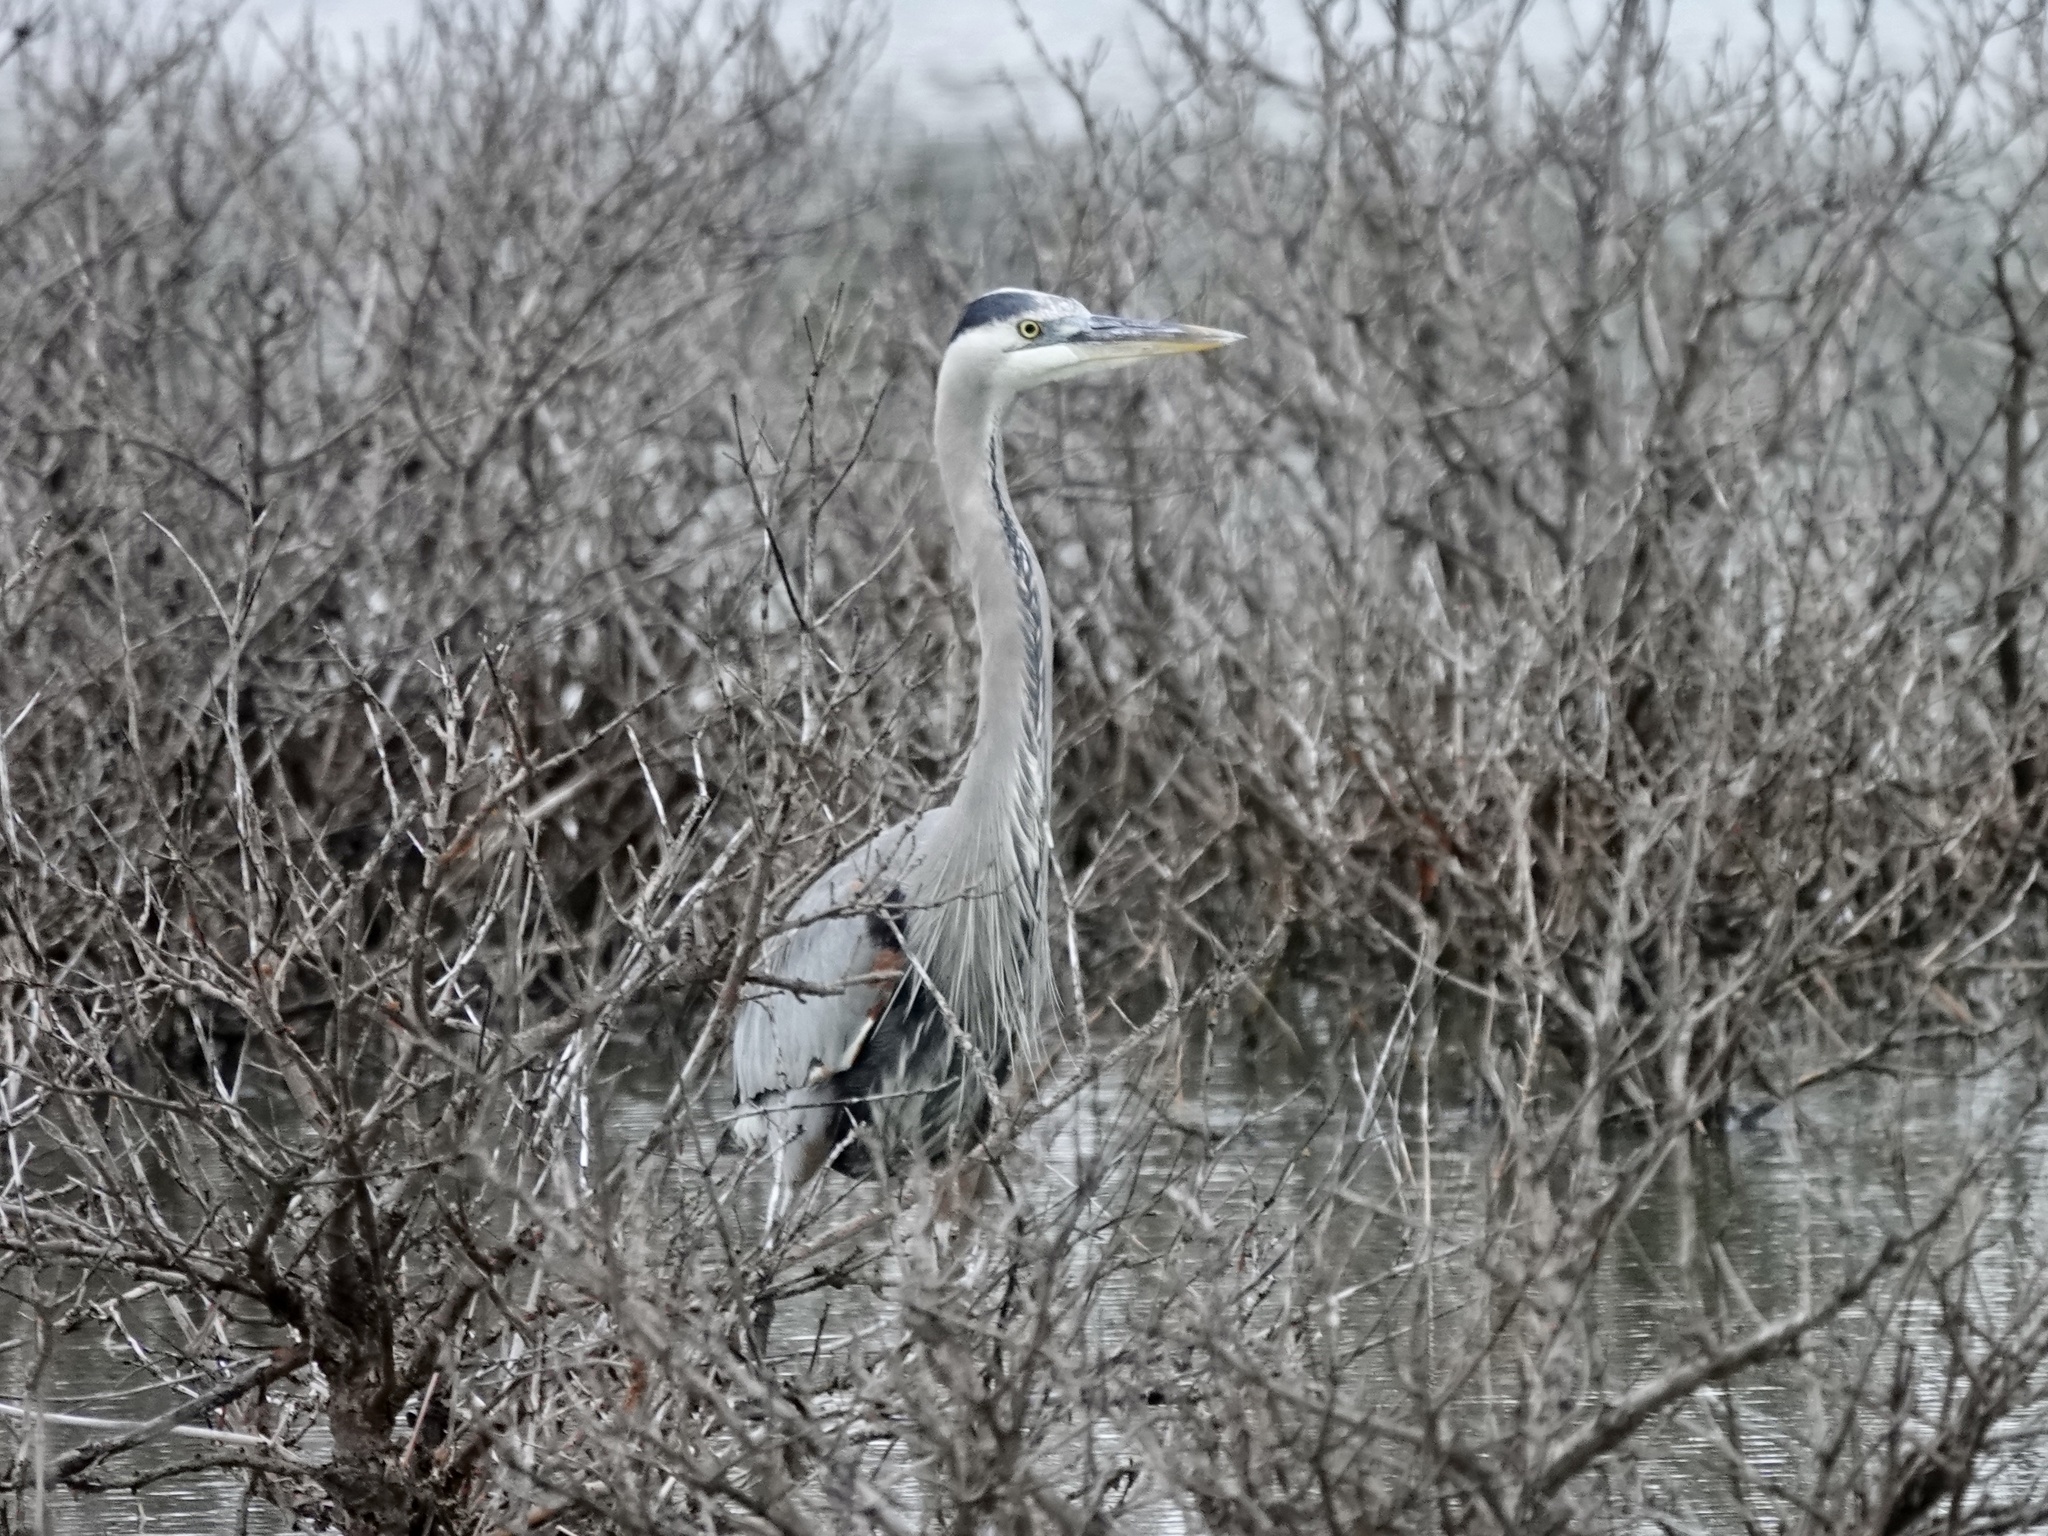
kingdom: Animalia
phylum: Chordata
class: Aves
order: Pelecaniformes
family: Ardeidae
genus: Ardea
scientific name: Ardea herodias
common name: Great blue heron
